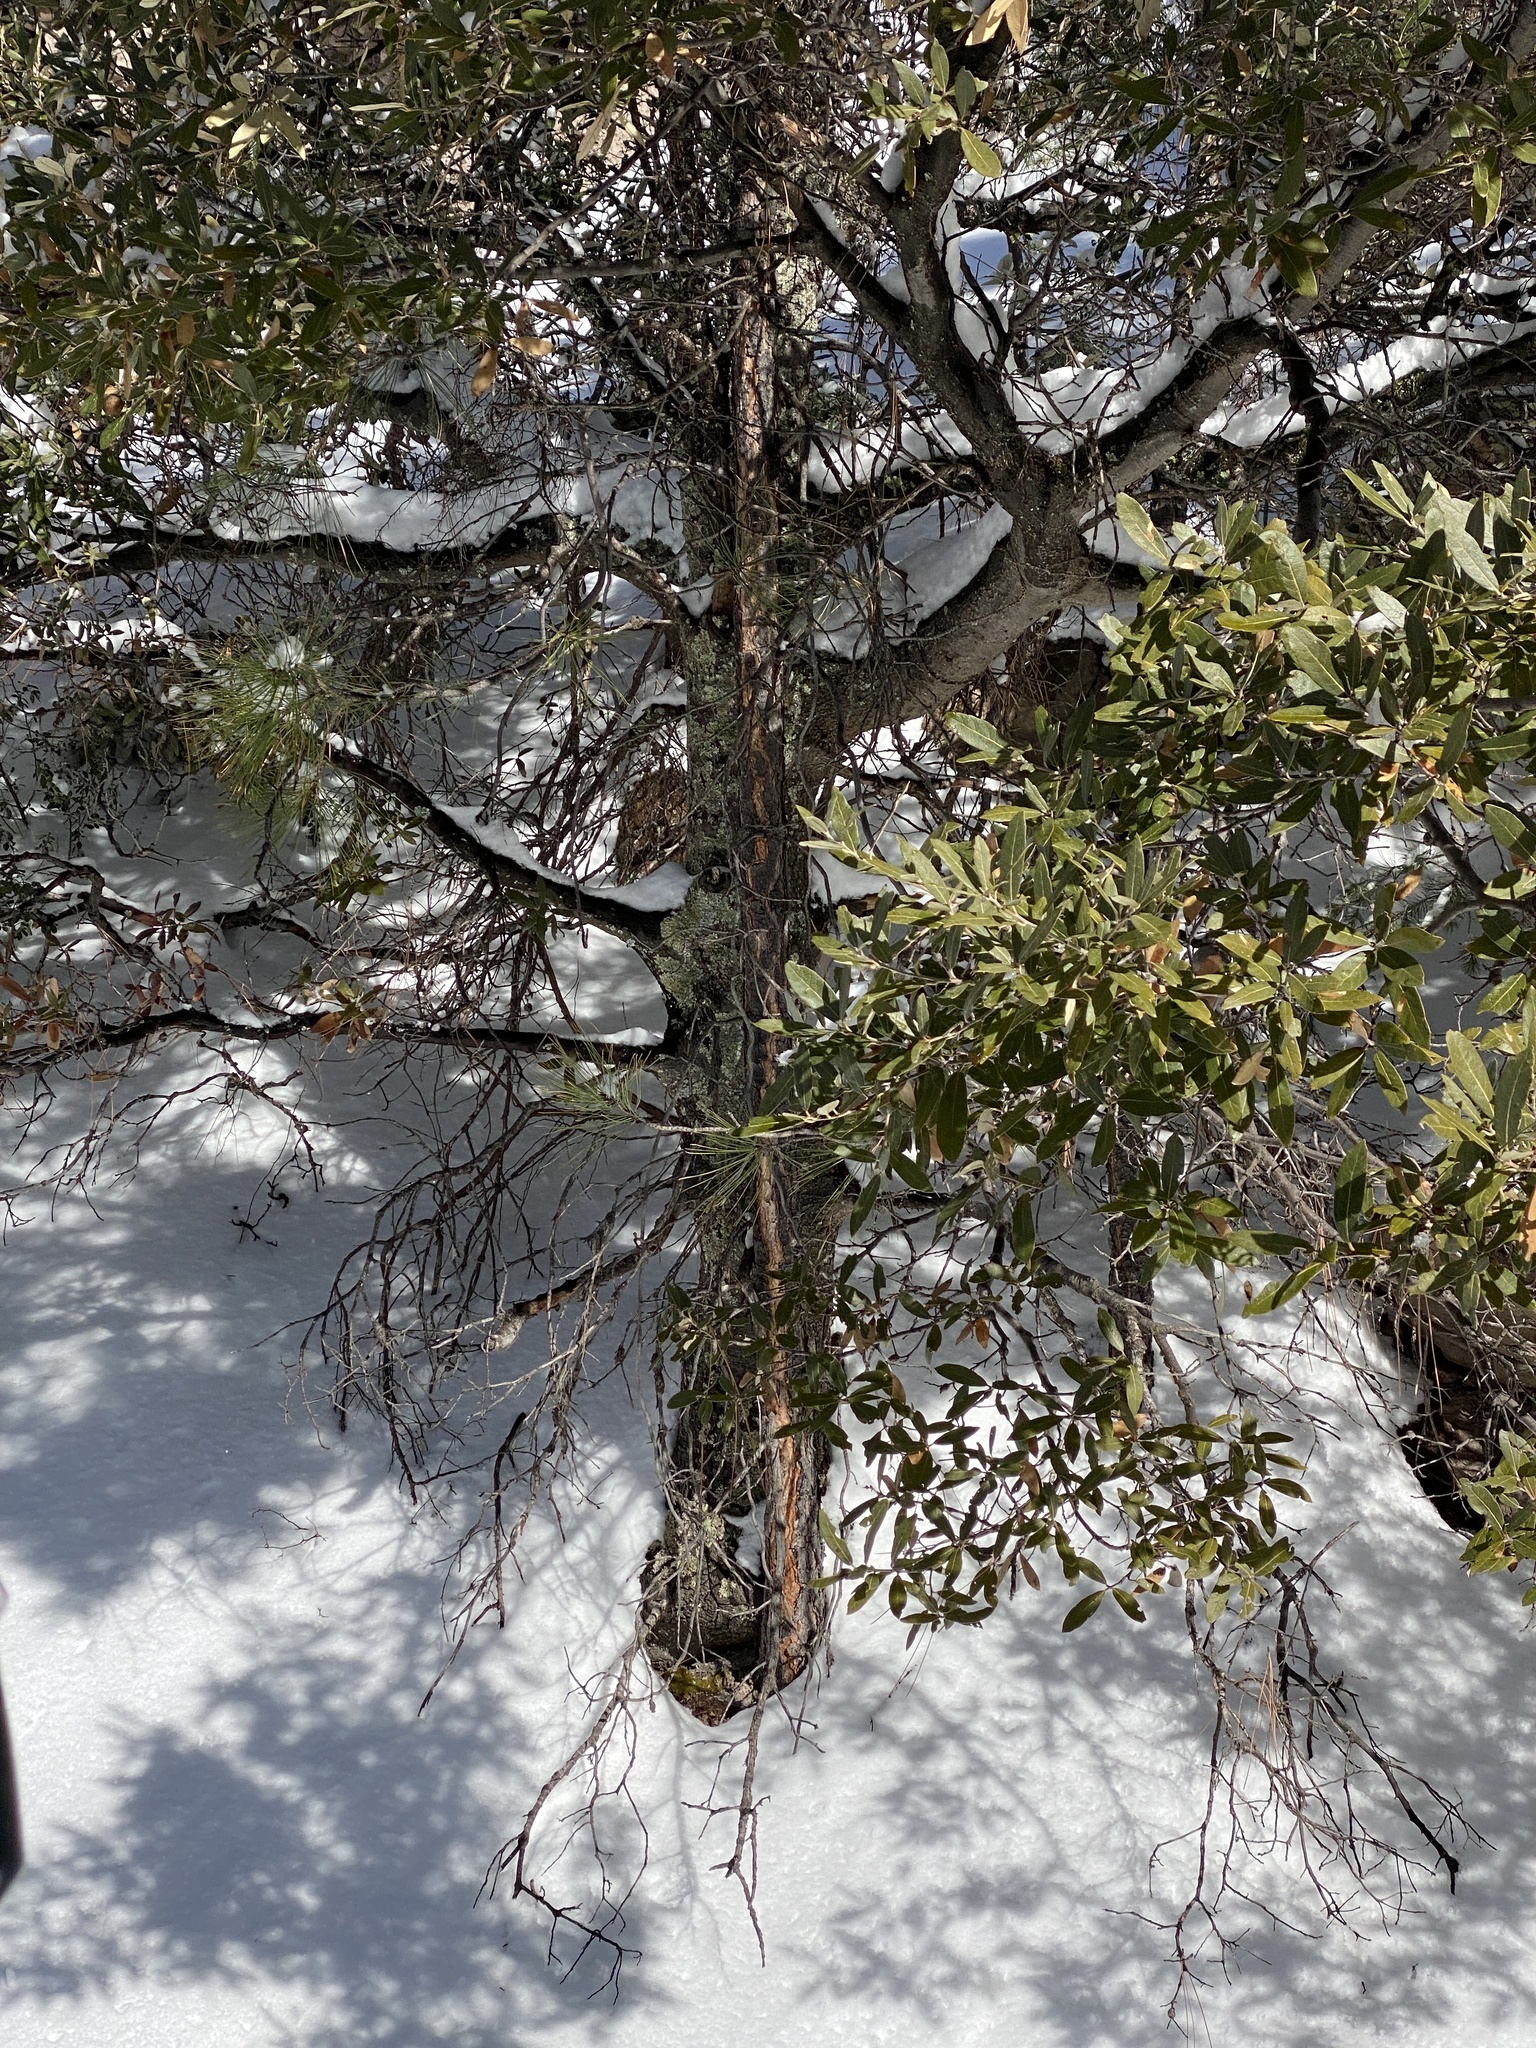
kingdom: Plantae
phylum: Tracheophyta
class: Magnoliopsida
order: Fagales
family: Fagaceae
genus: Quercus
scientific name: Quercus hypoleucoides
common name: Silverleaf oak
